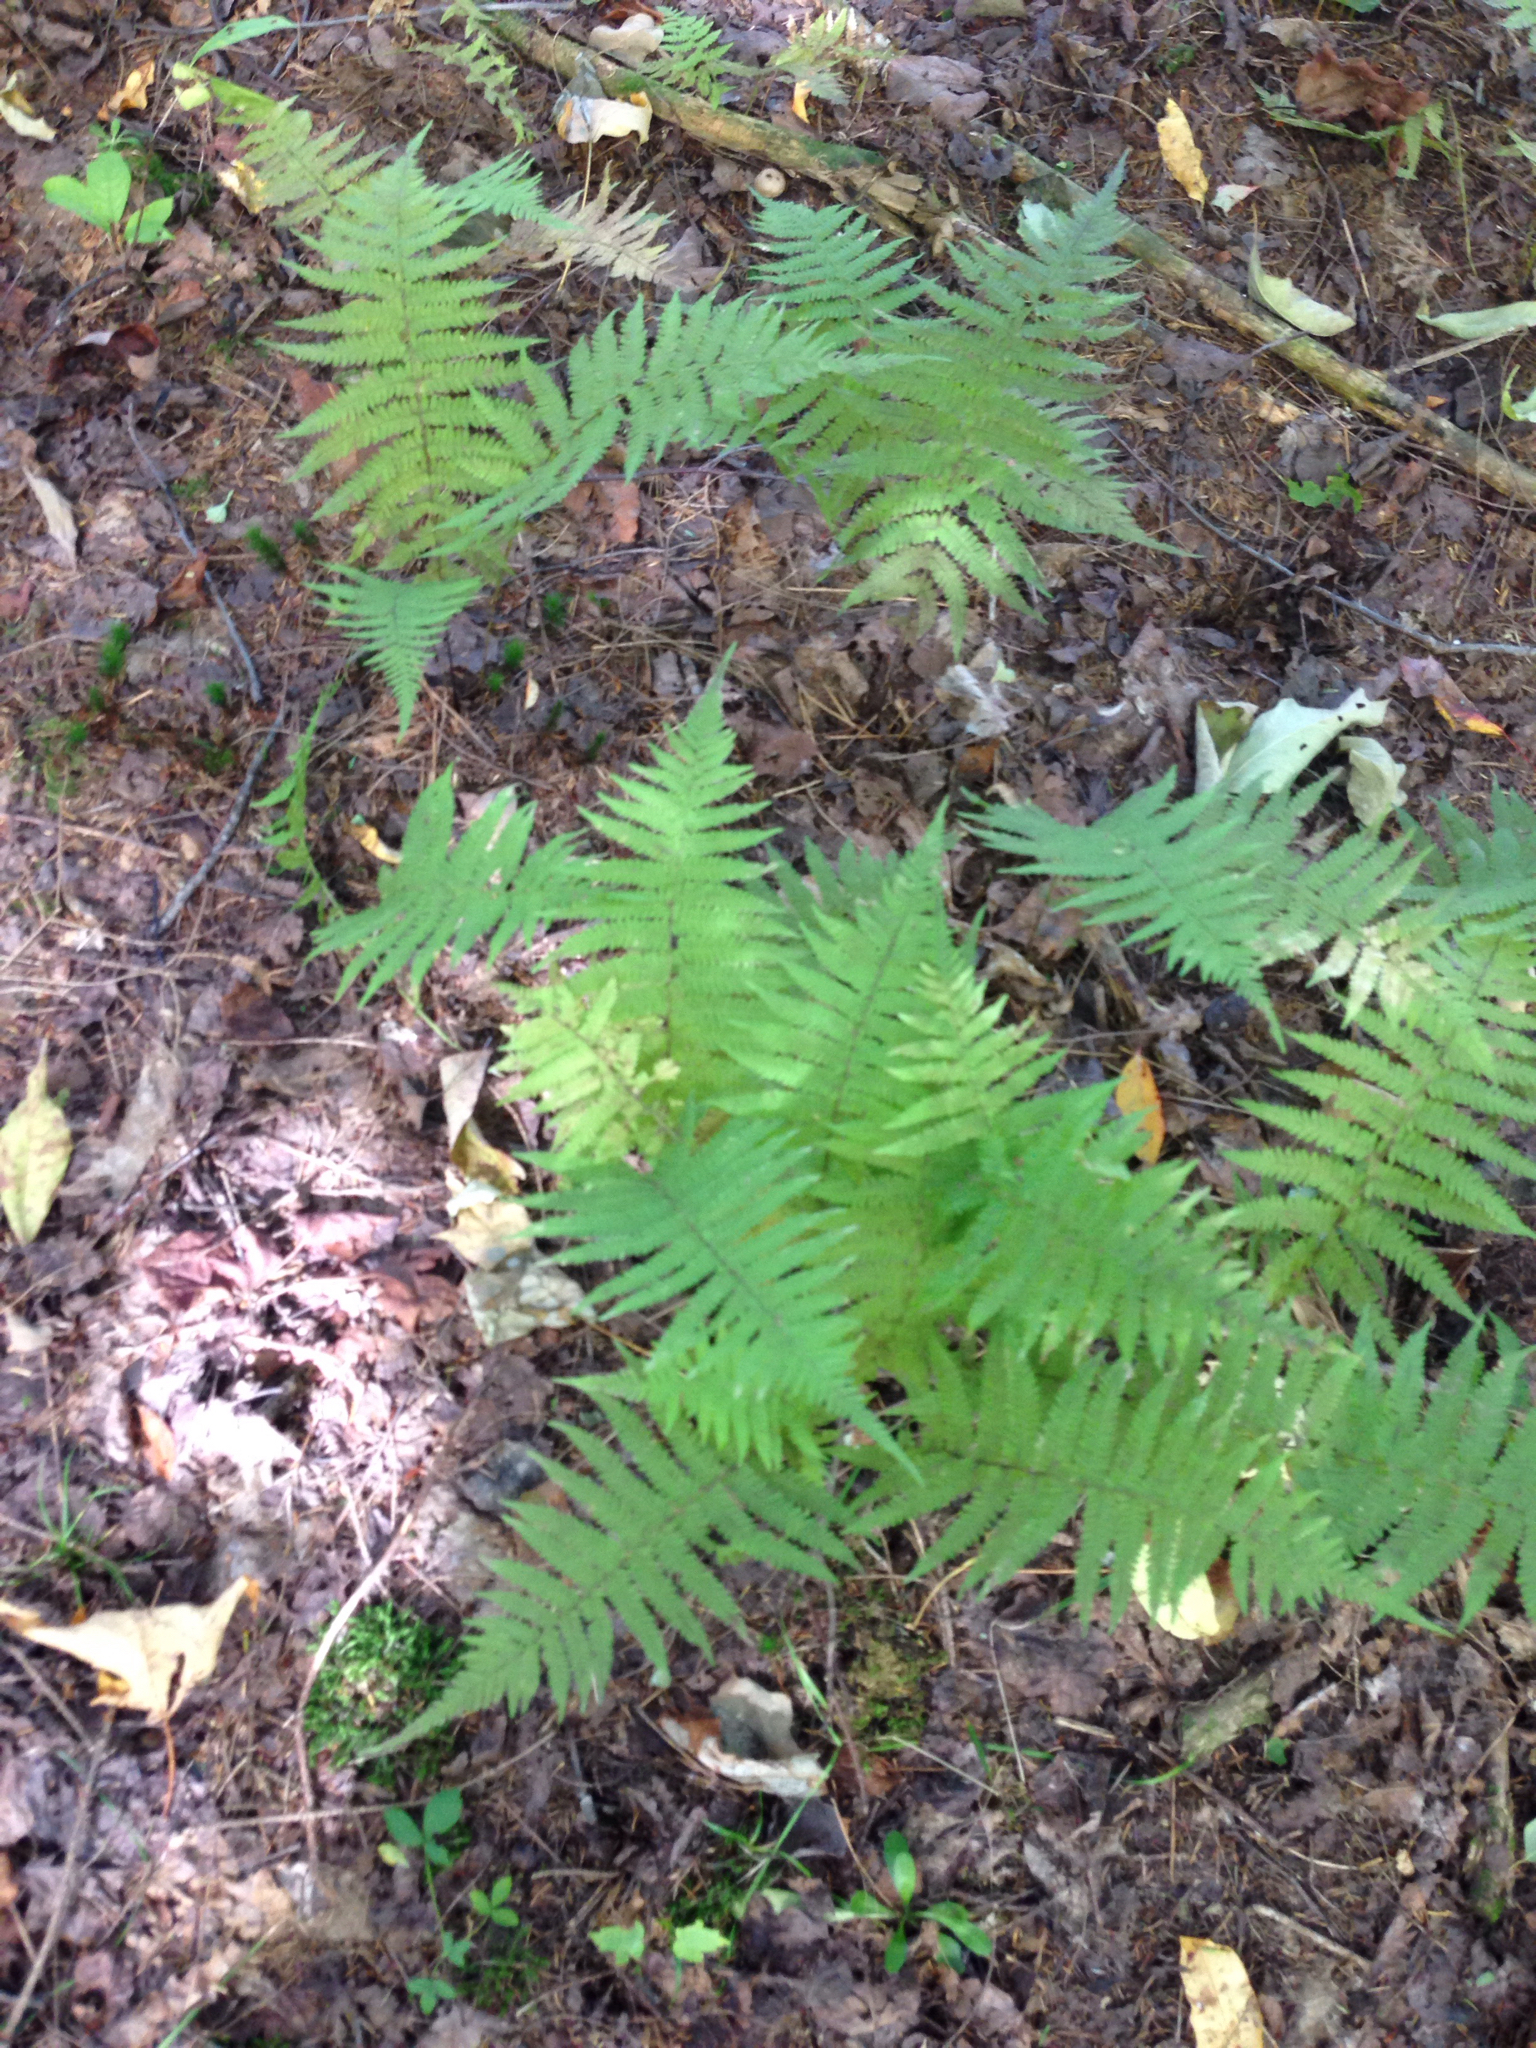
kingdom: Plantae
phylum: Tracheophyta
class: Polypodiopsida
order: Polypodiales
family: Thelypteridaceae
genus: Amauropelta
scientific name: Amauropelta noveboracensis
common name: New york fern
